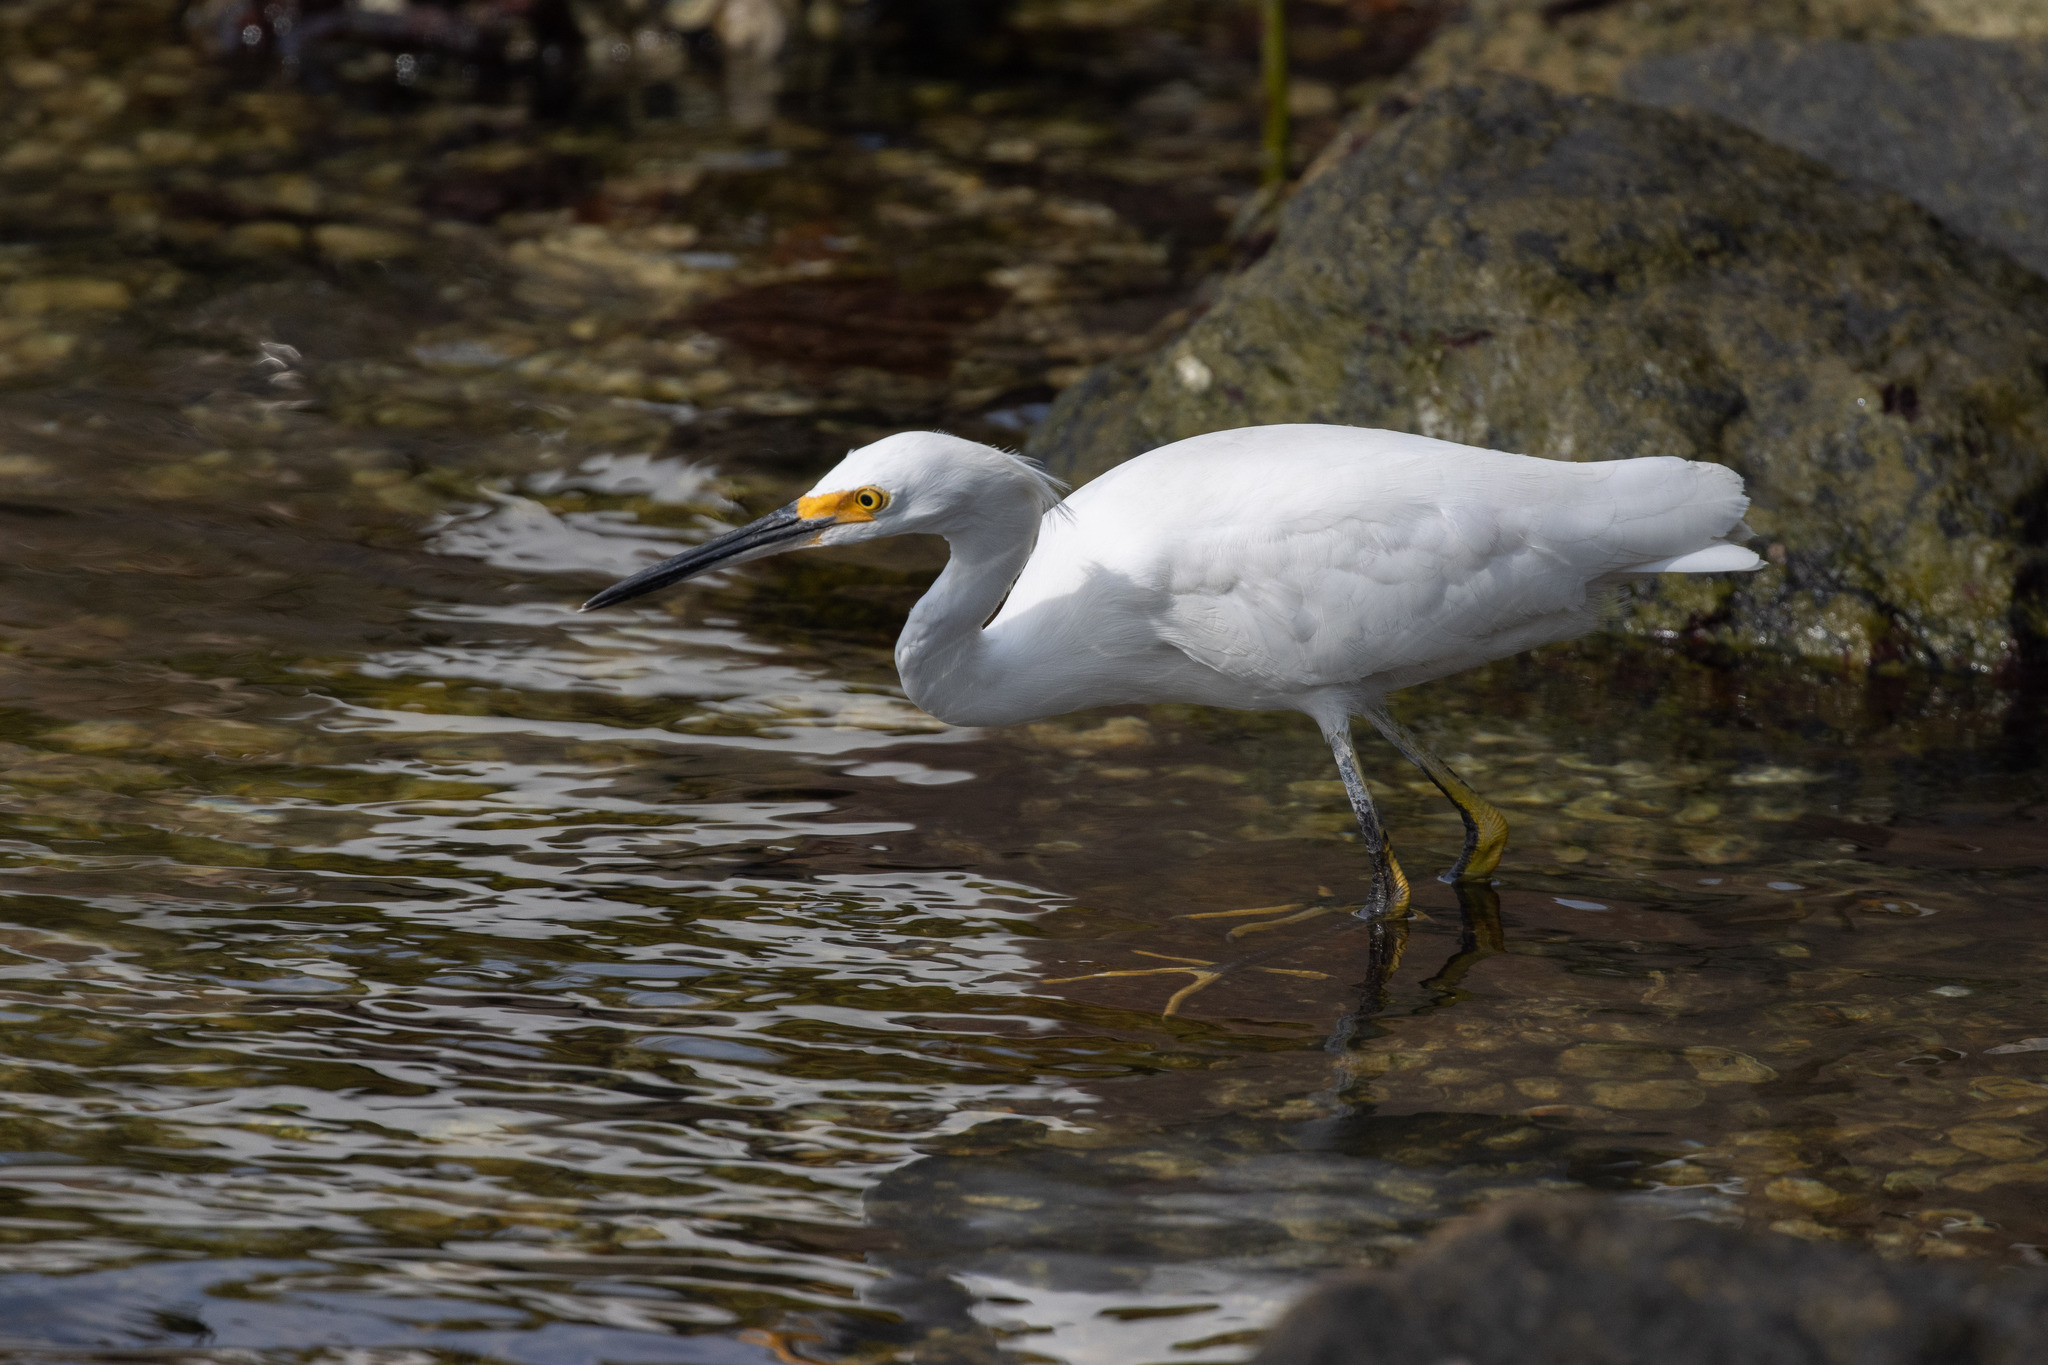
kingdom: Animalia
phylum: Chordata
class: Aves
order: Pelecaniformes
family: Ardeidae
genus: Egretta
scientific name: Egretta thula
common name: Snowy egret
